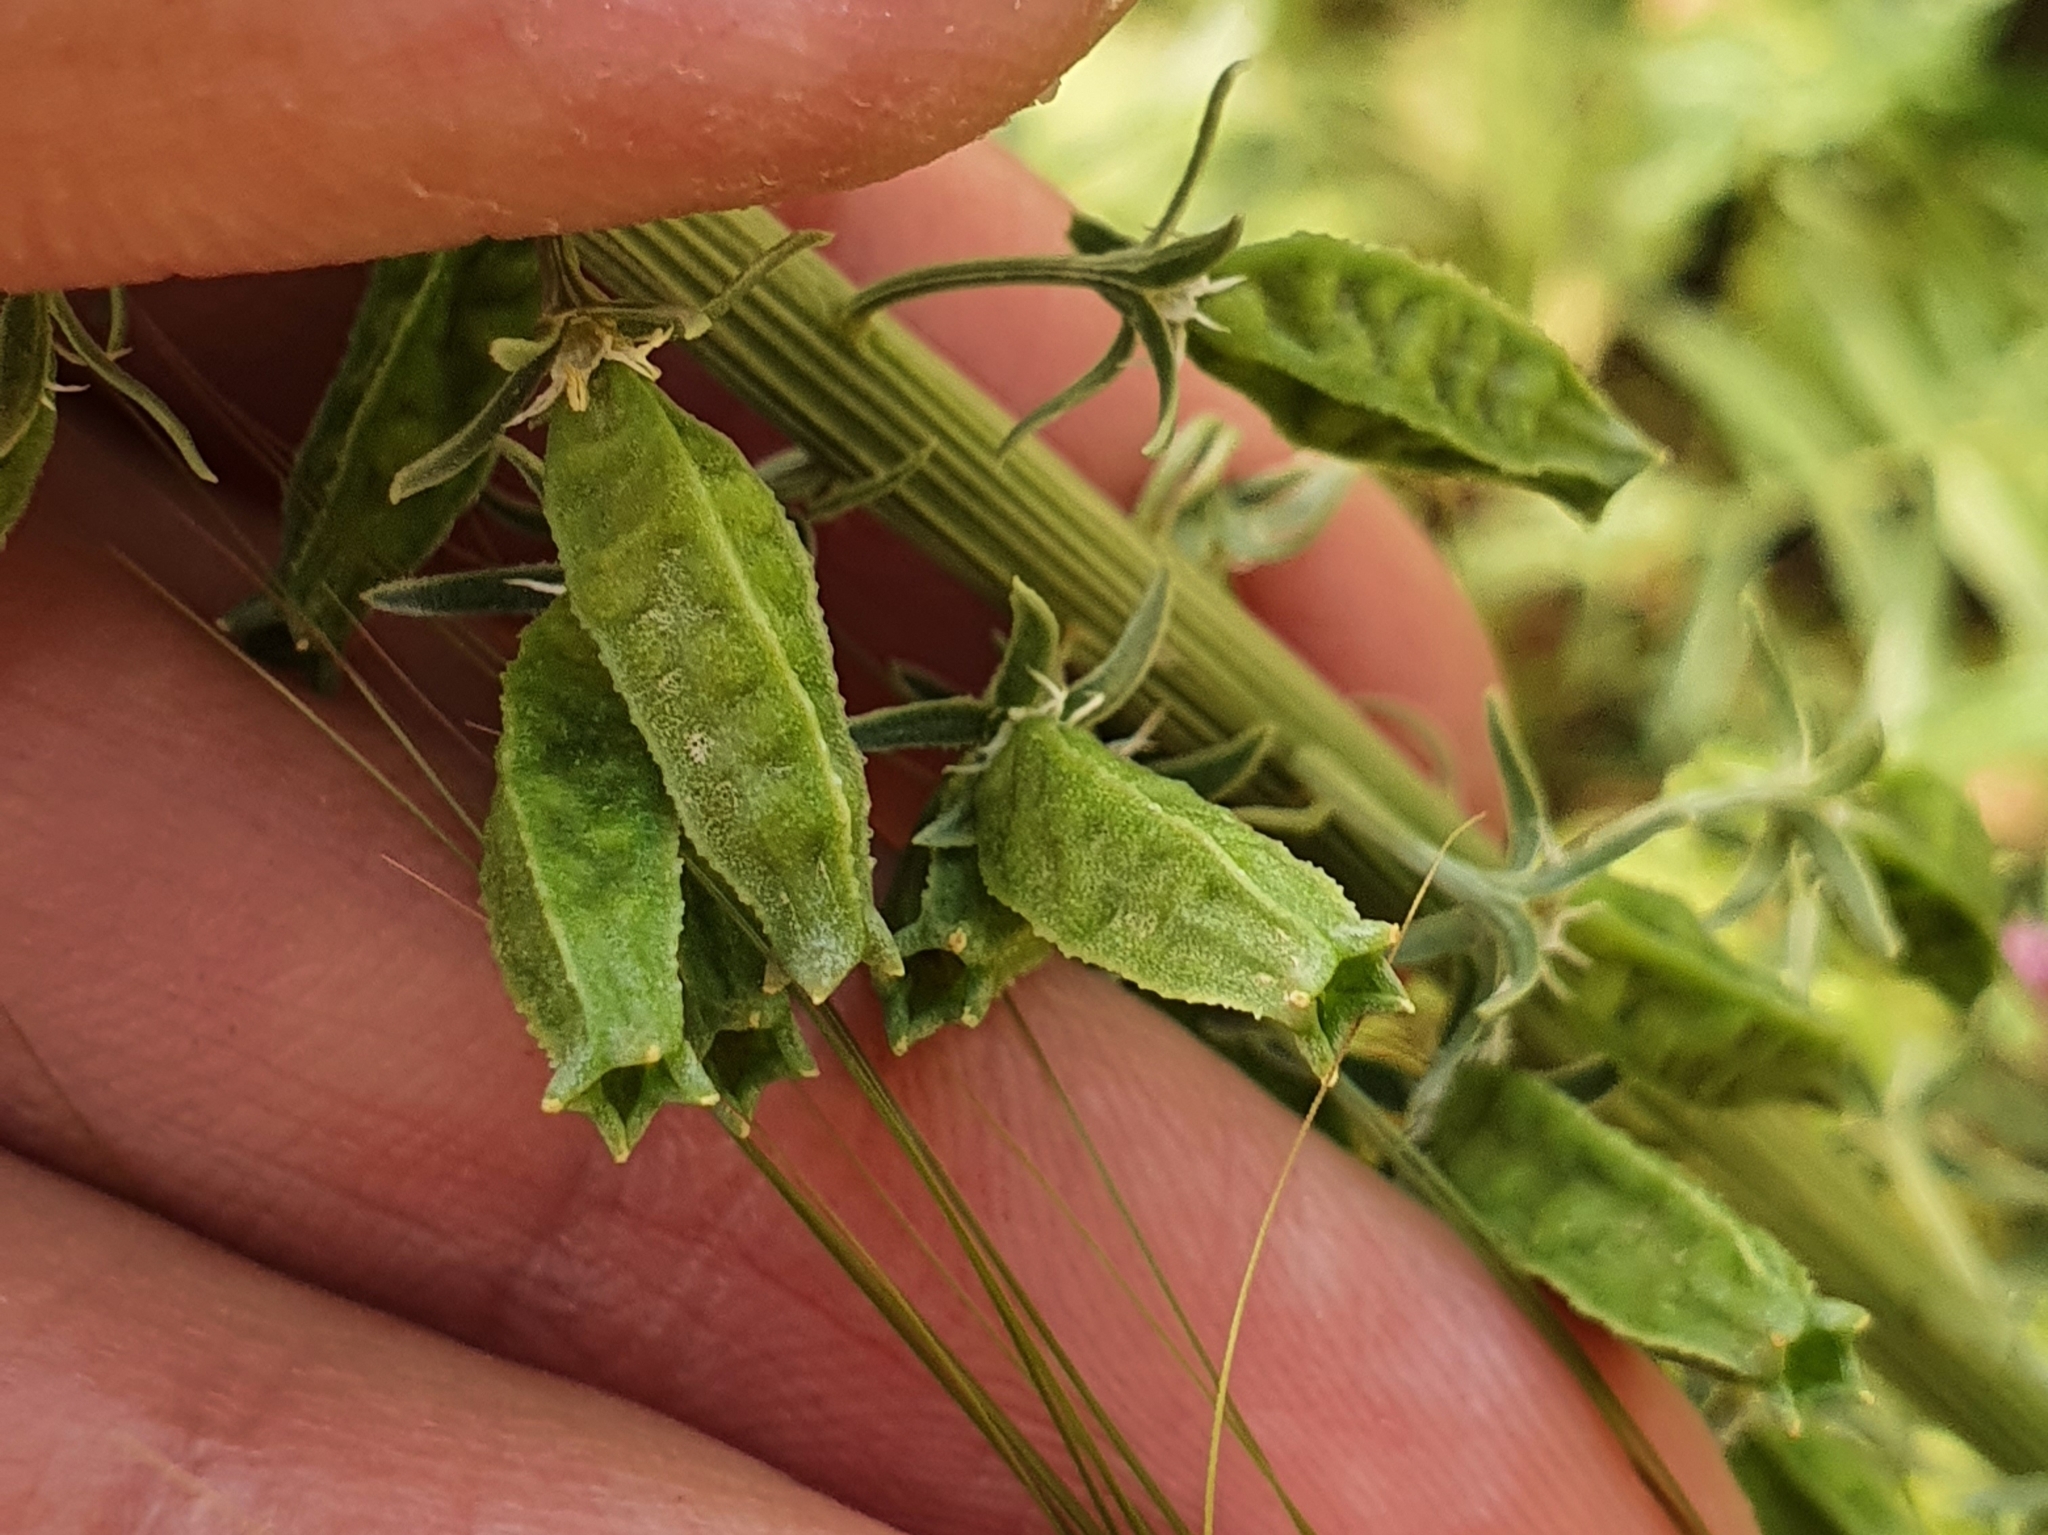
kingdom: Plantae
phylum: Tracheophyta
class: Magnoliopsida
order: Brassicales
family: Resedaceae
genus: Reseda
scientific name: Reseda alba
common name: White mignonette
